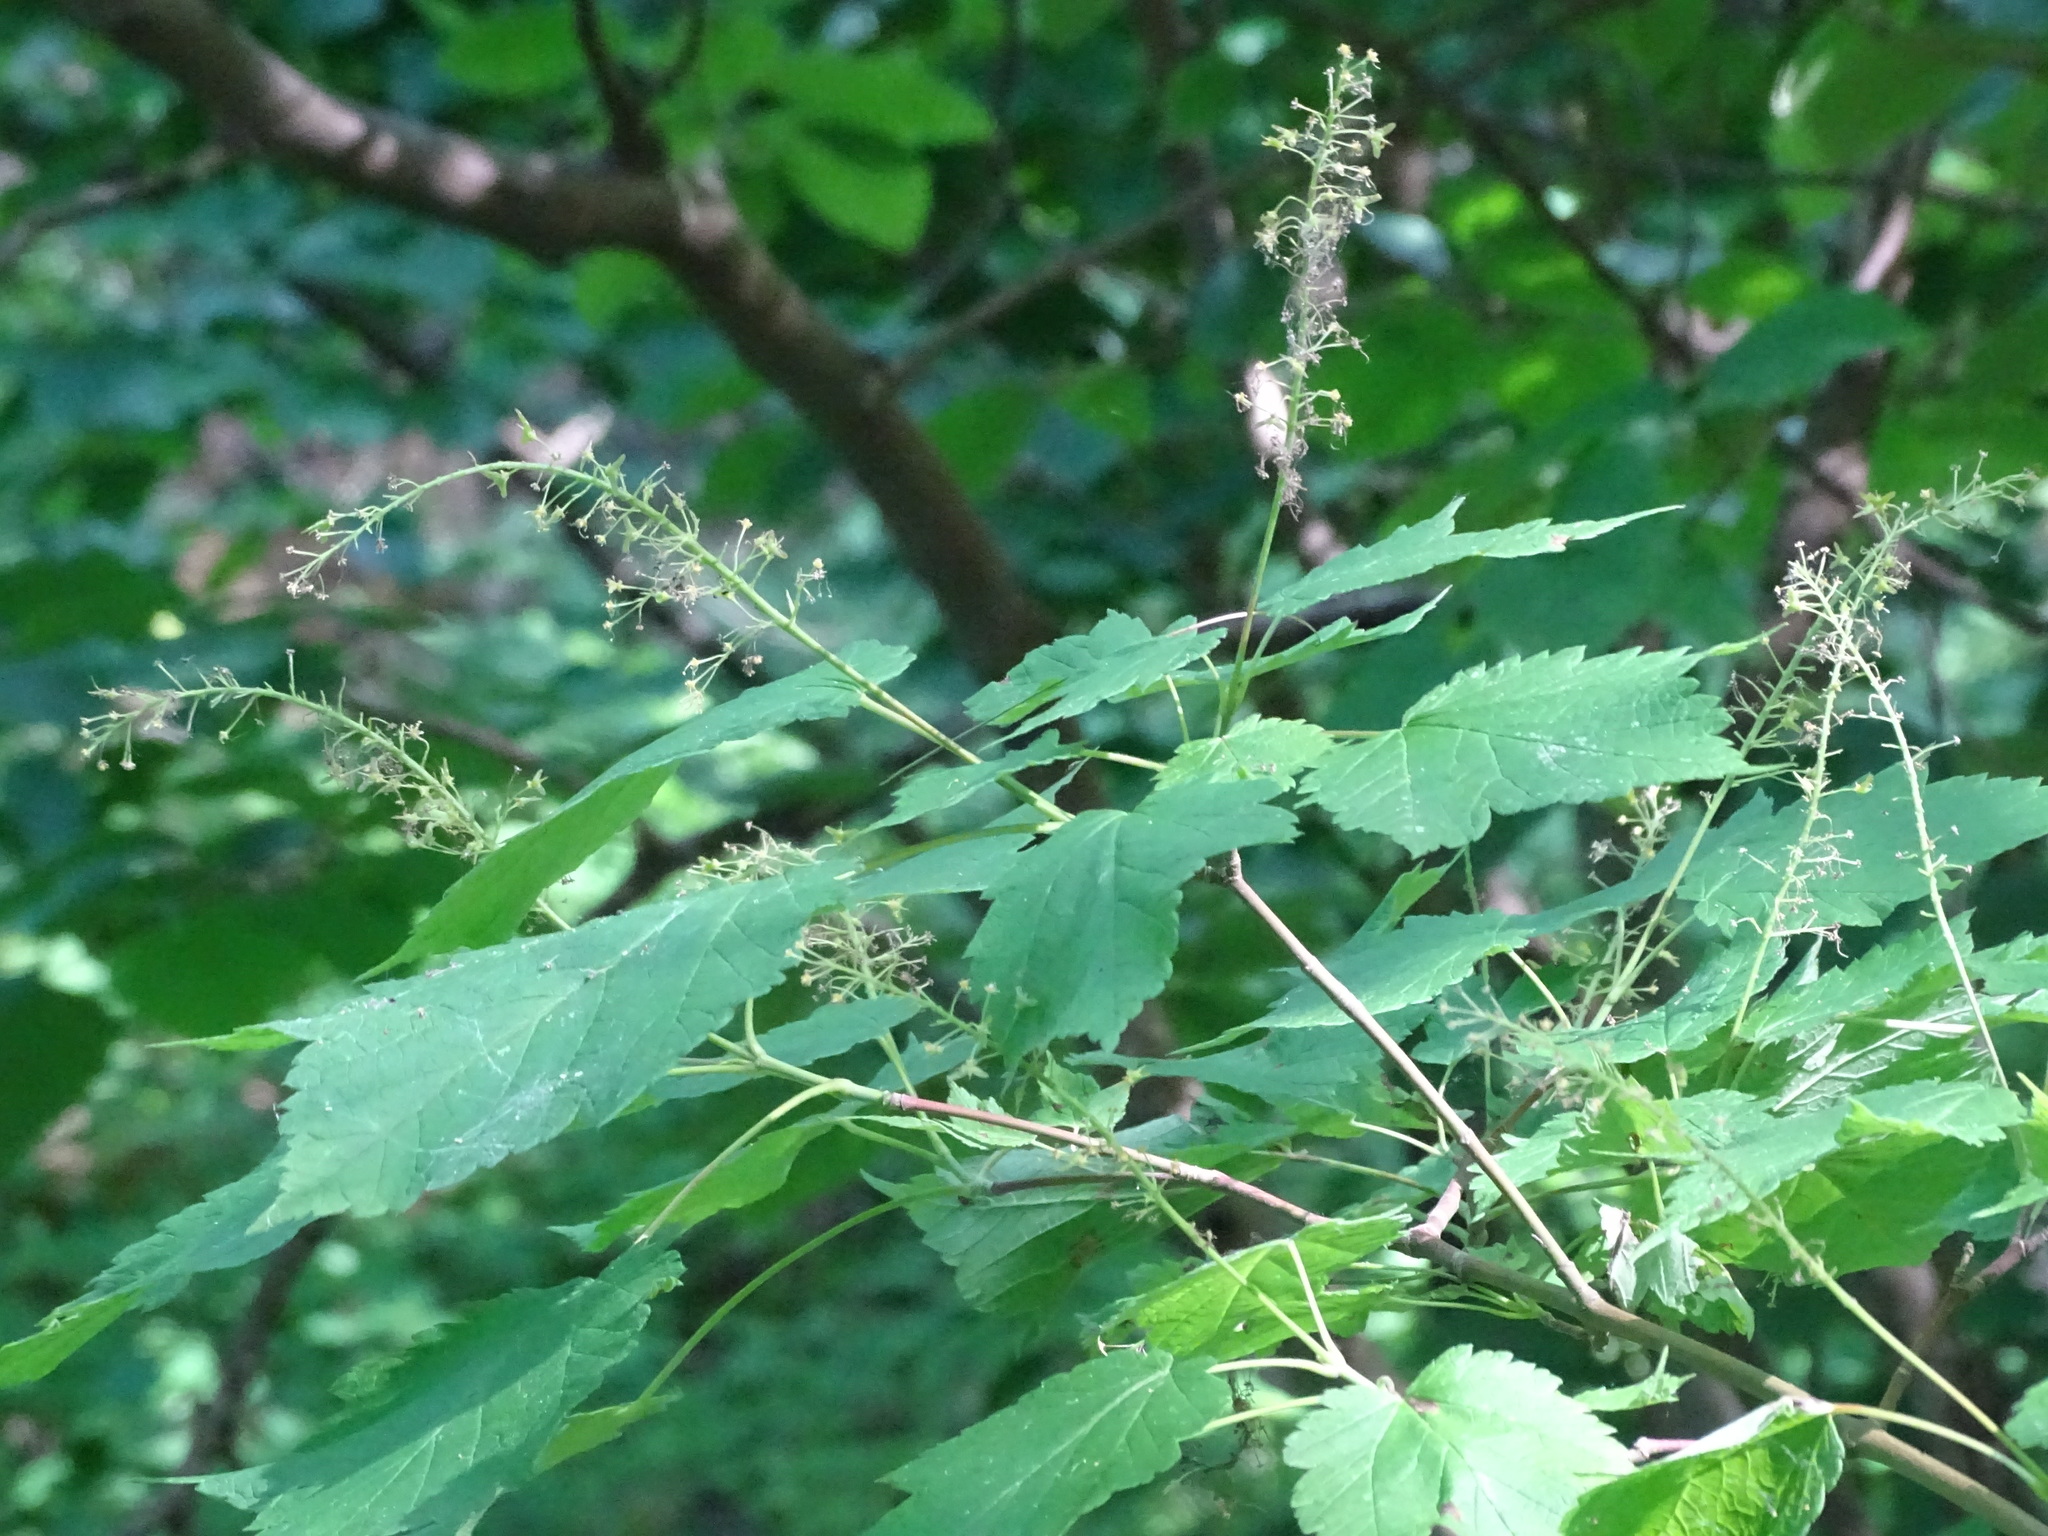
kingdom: Plantae
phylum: Tracheophyta
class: Magnoliopsida
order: Sapindales
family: Sapindaceae
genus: Acer
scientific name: Acer spicatum
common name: Mountain maple
